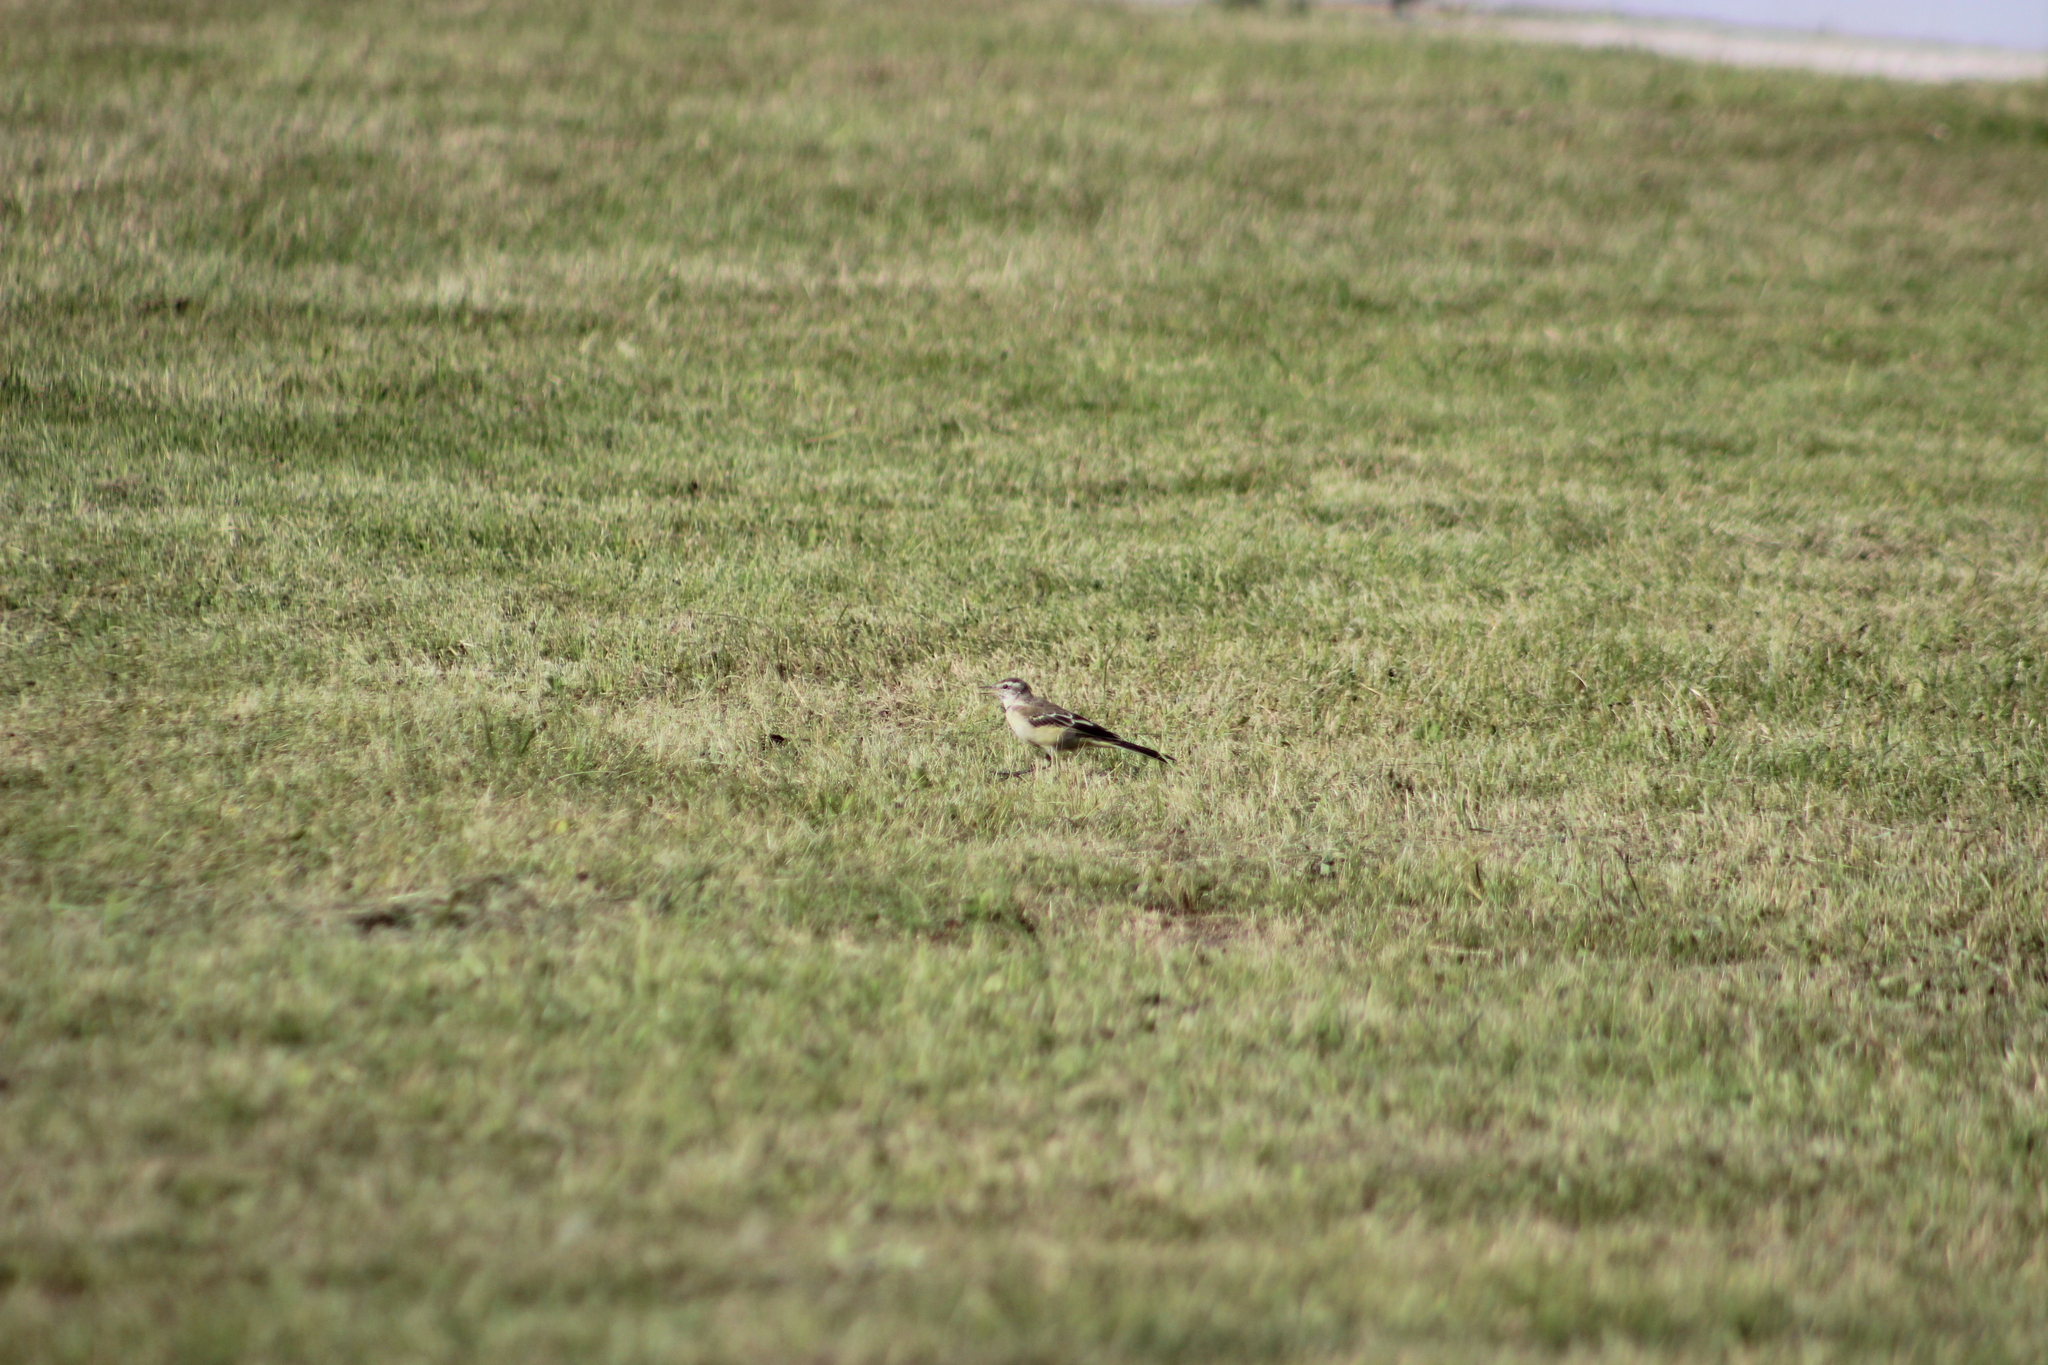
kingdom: Animalia
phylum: Chordata
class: Aves
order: Passeriformes
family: Motacillidae
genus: Motacilla
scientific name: Motacilla flava
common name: Western yellow wagtail
